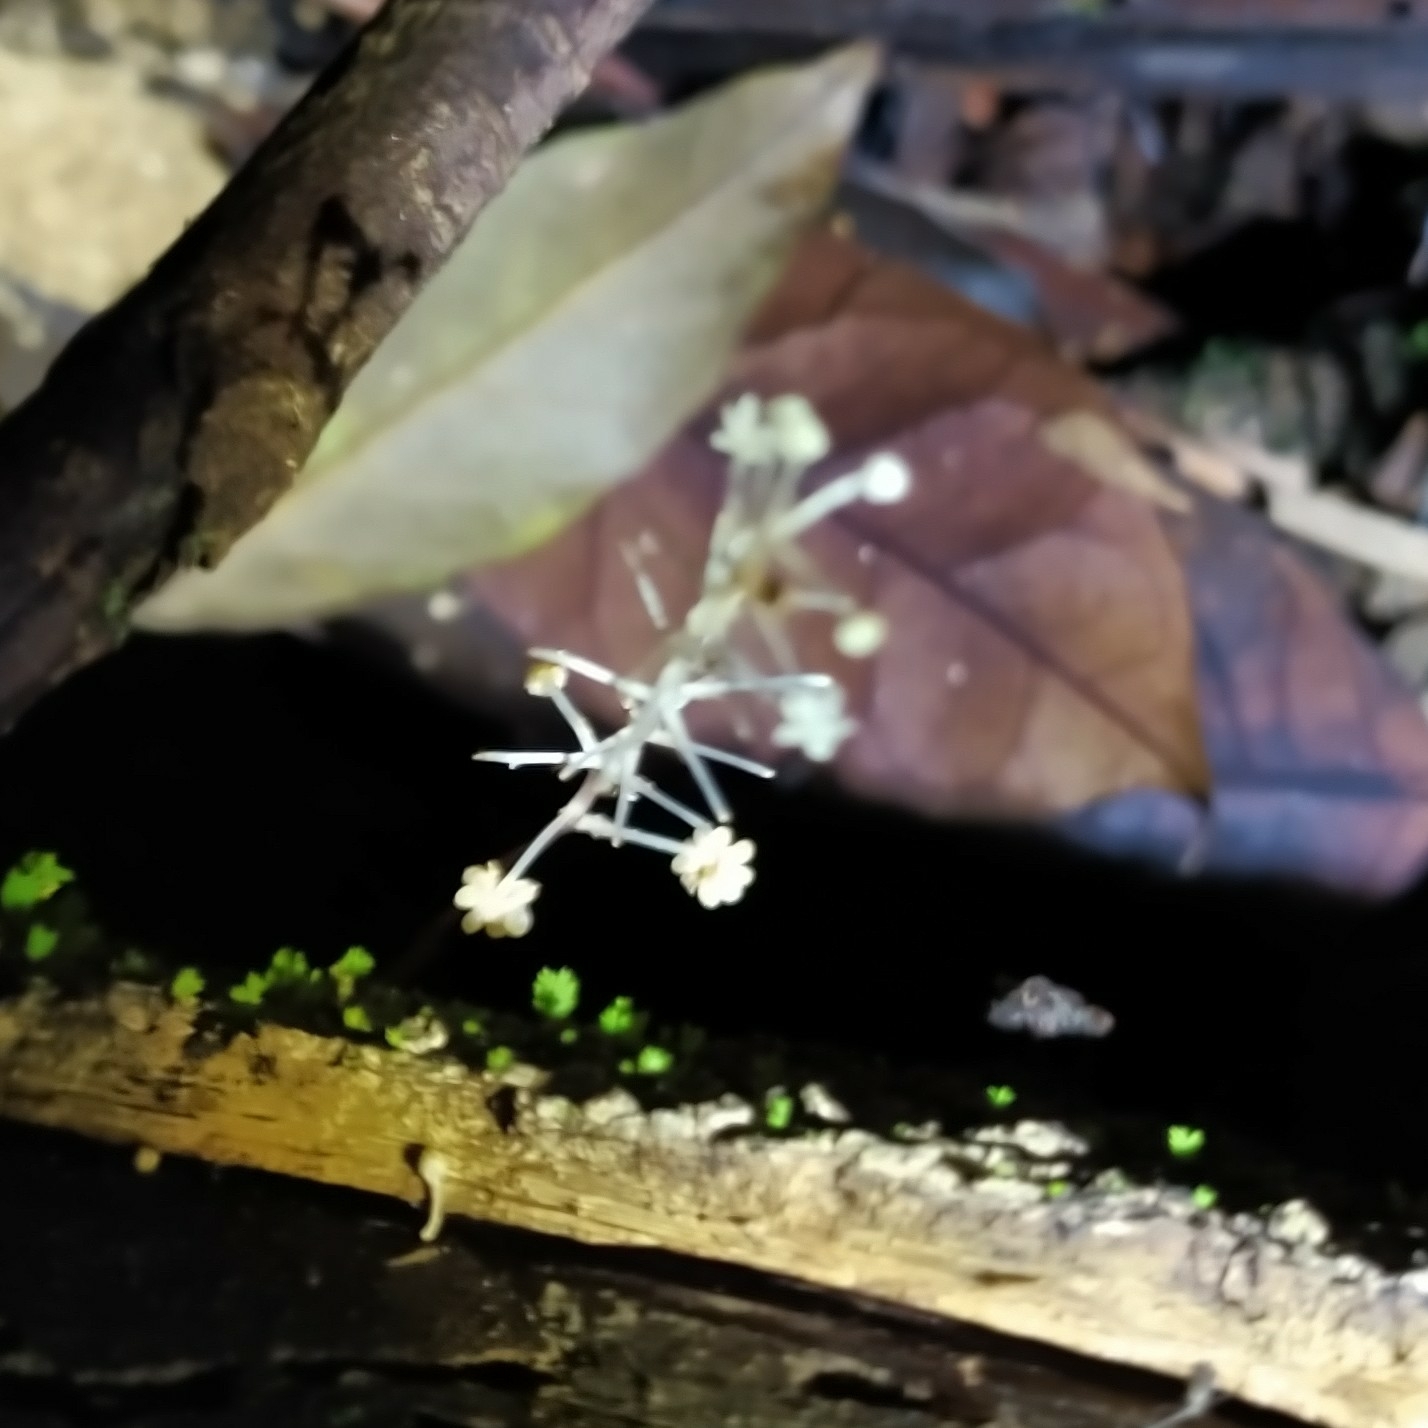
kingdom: Plantae
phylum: Tracheophyta
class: Liliopsida
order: Pandanales
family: Triuridaceae
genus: Sciaphila
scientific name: Sciaphila albescens
